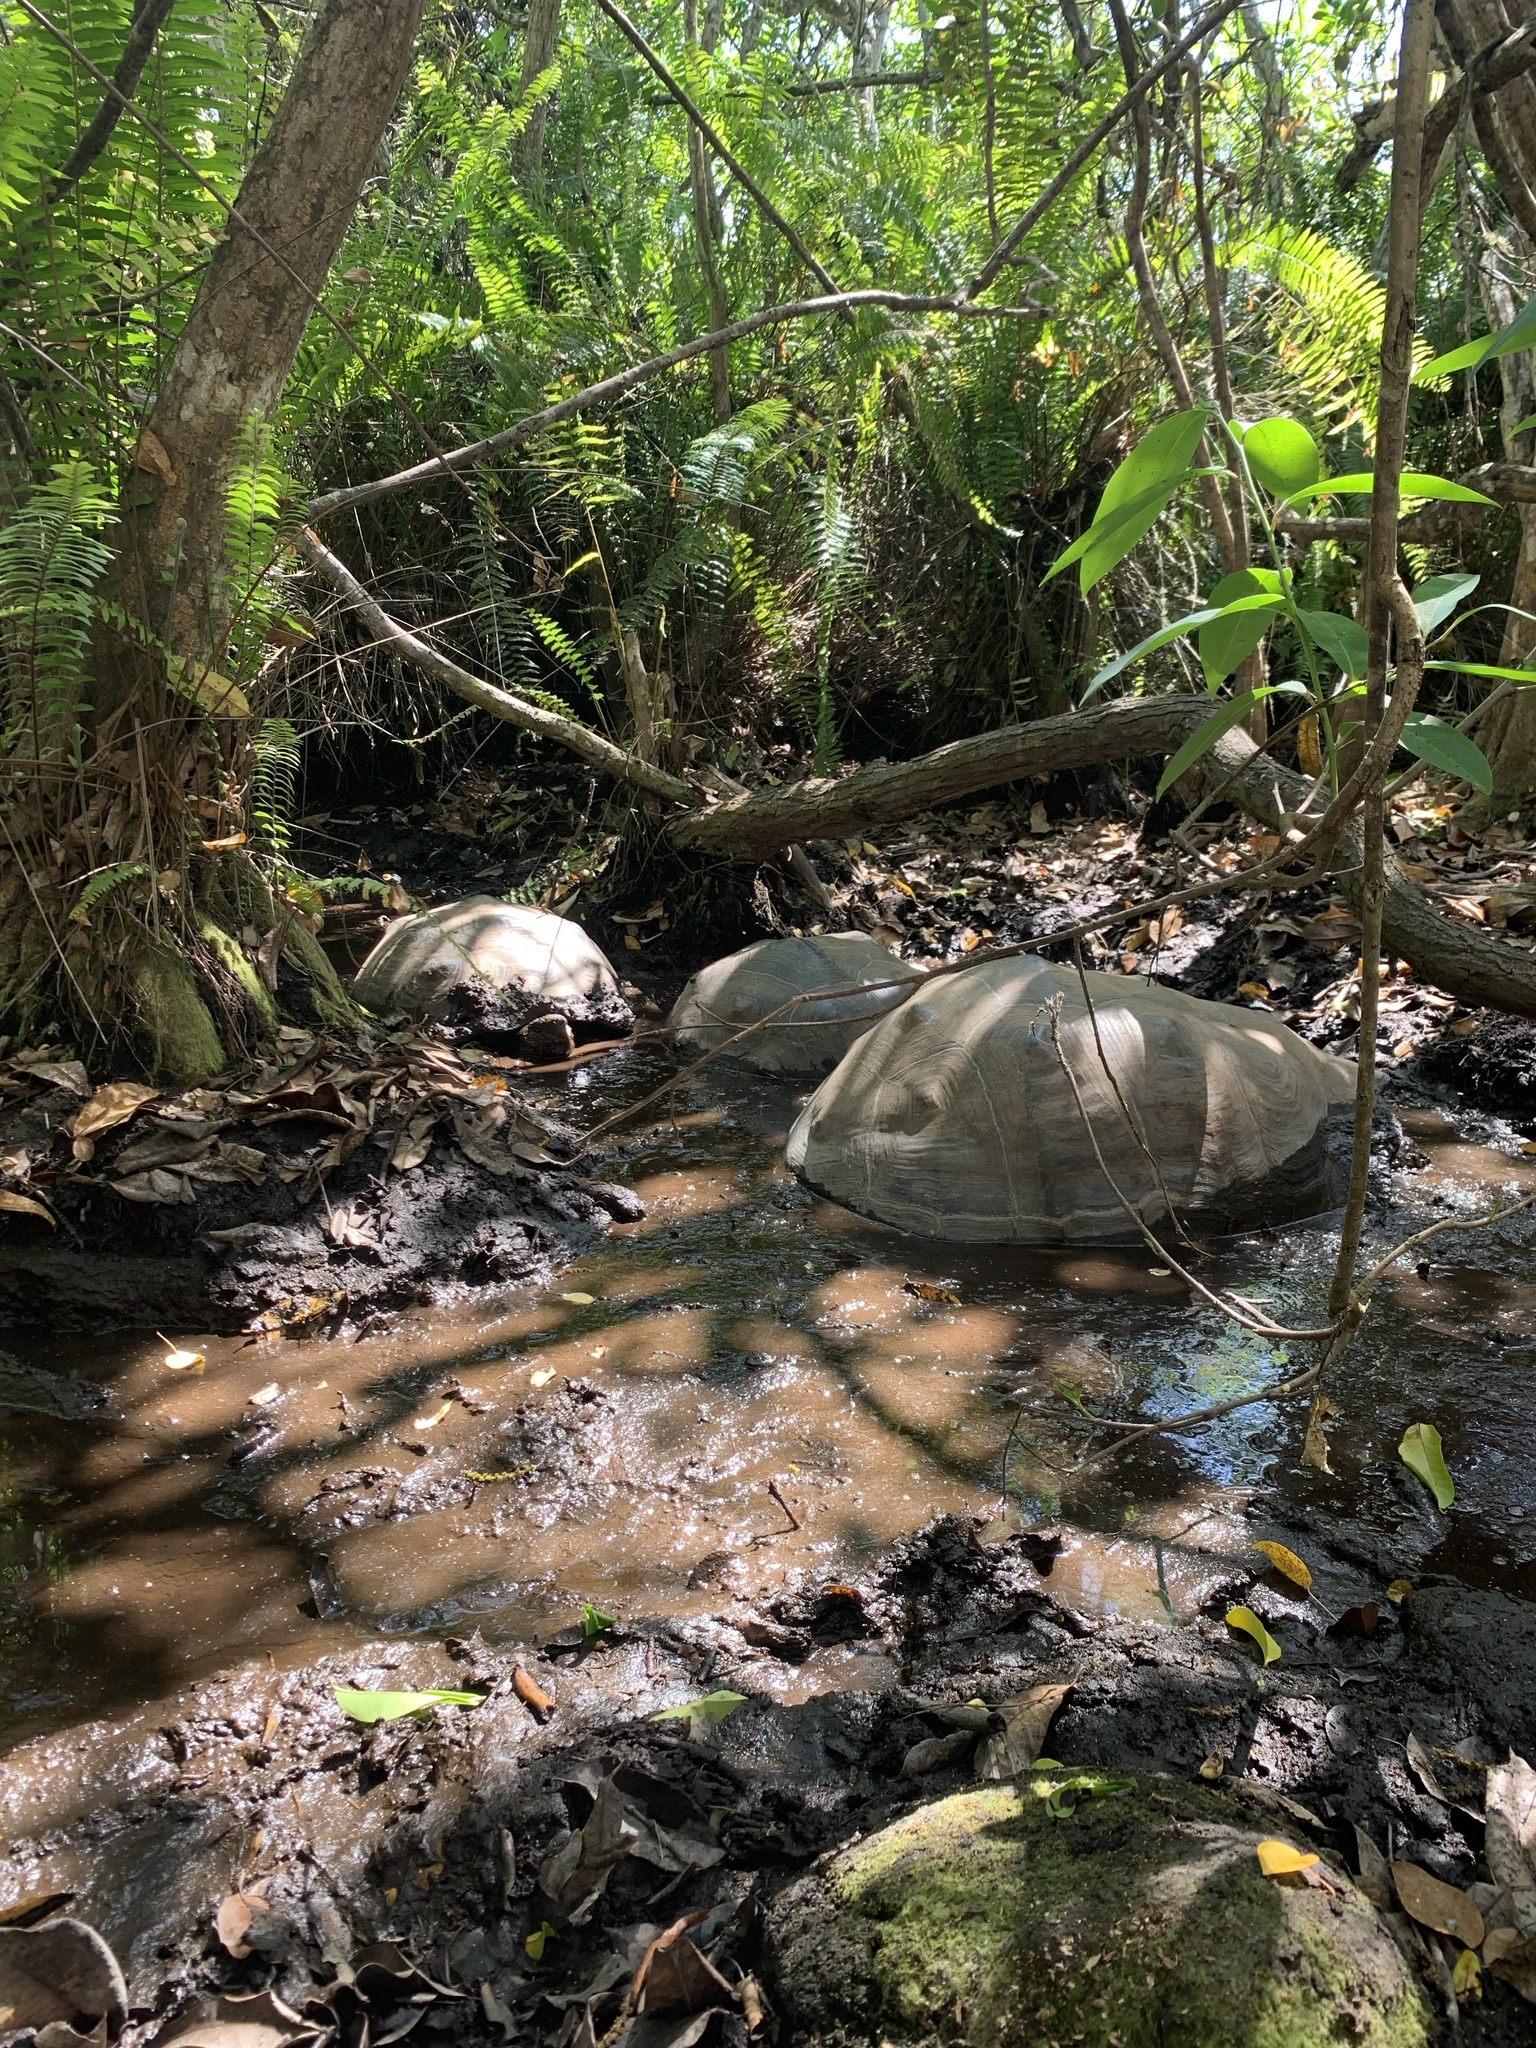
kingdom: Animalia
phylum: Chordata
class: Testudines
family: Testudinidae
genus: Chelonoidis
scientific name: Chelonoidis guntheri
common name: Sierra negra giant tortoise
